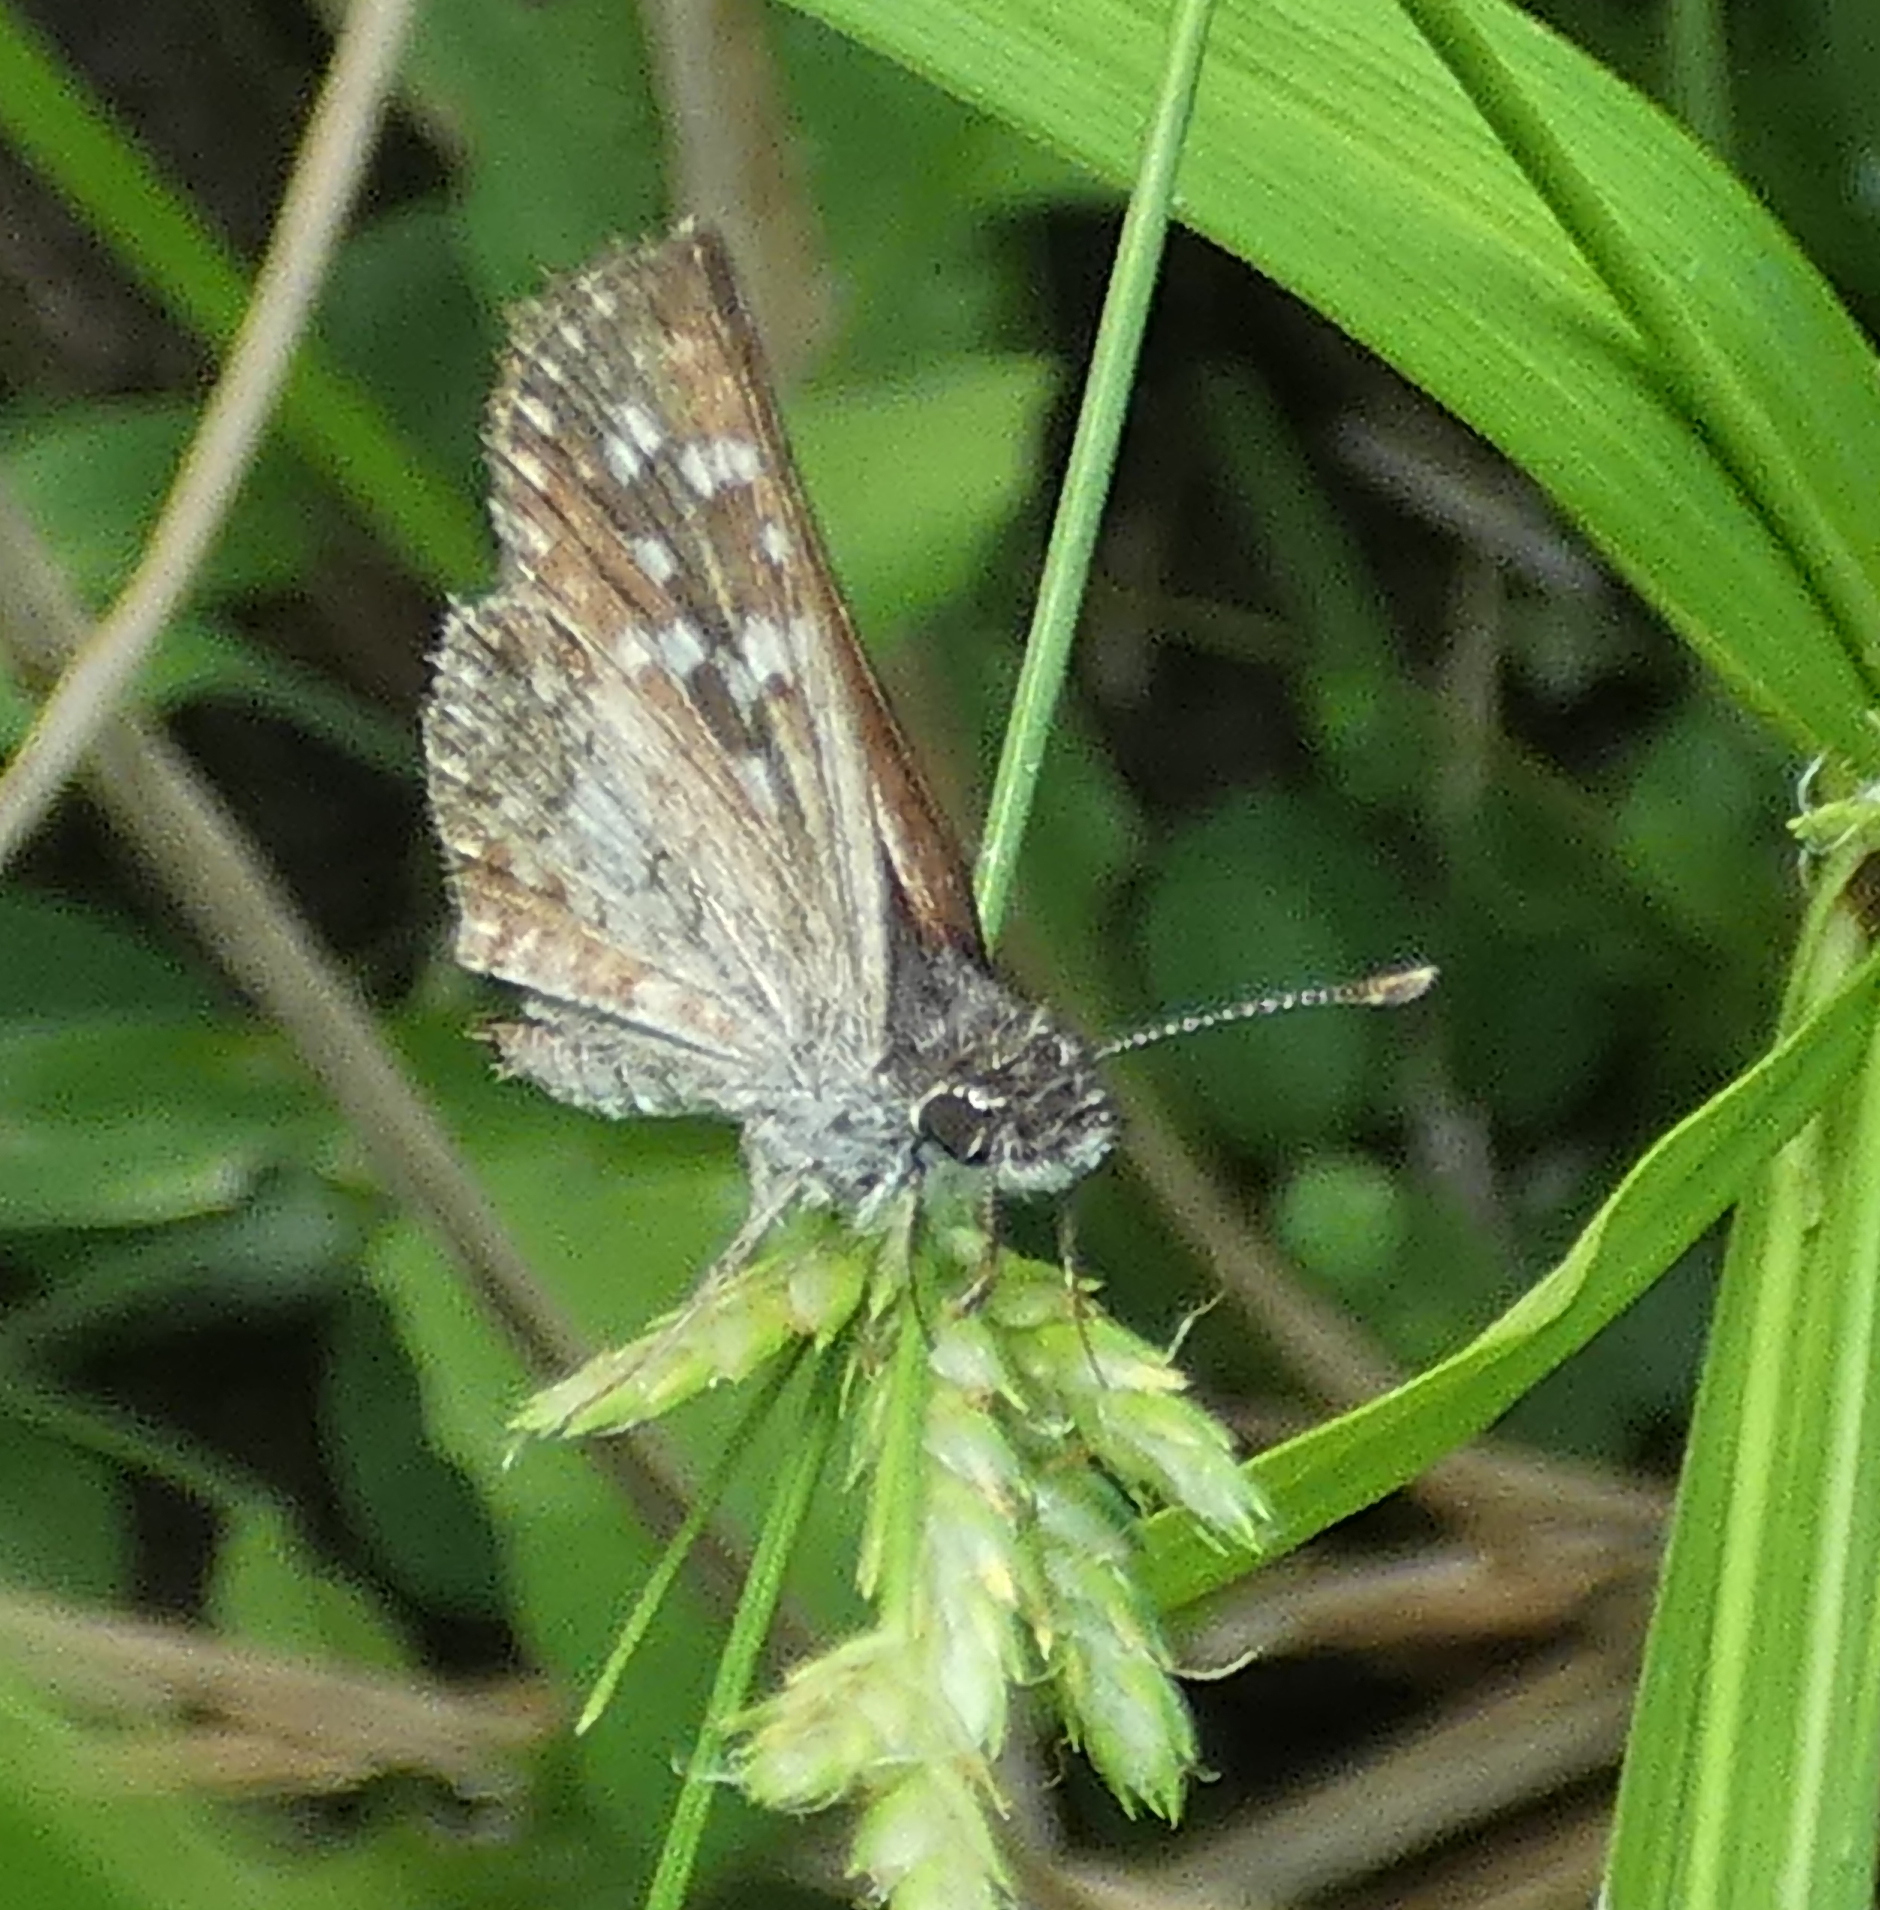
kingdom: Animalia
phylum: Arthropoda
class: Insecta
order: Lepidoptera
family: Hesperiidae
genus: Chirgus
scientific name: Chirgus
